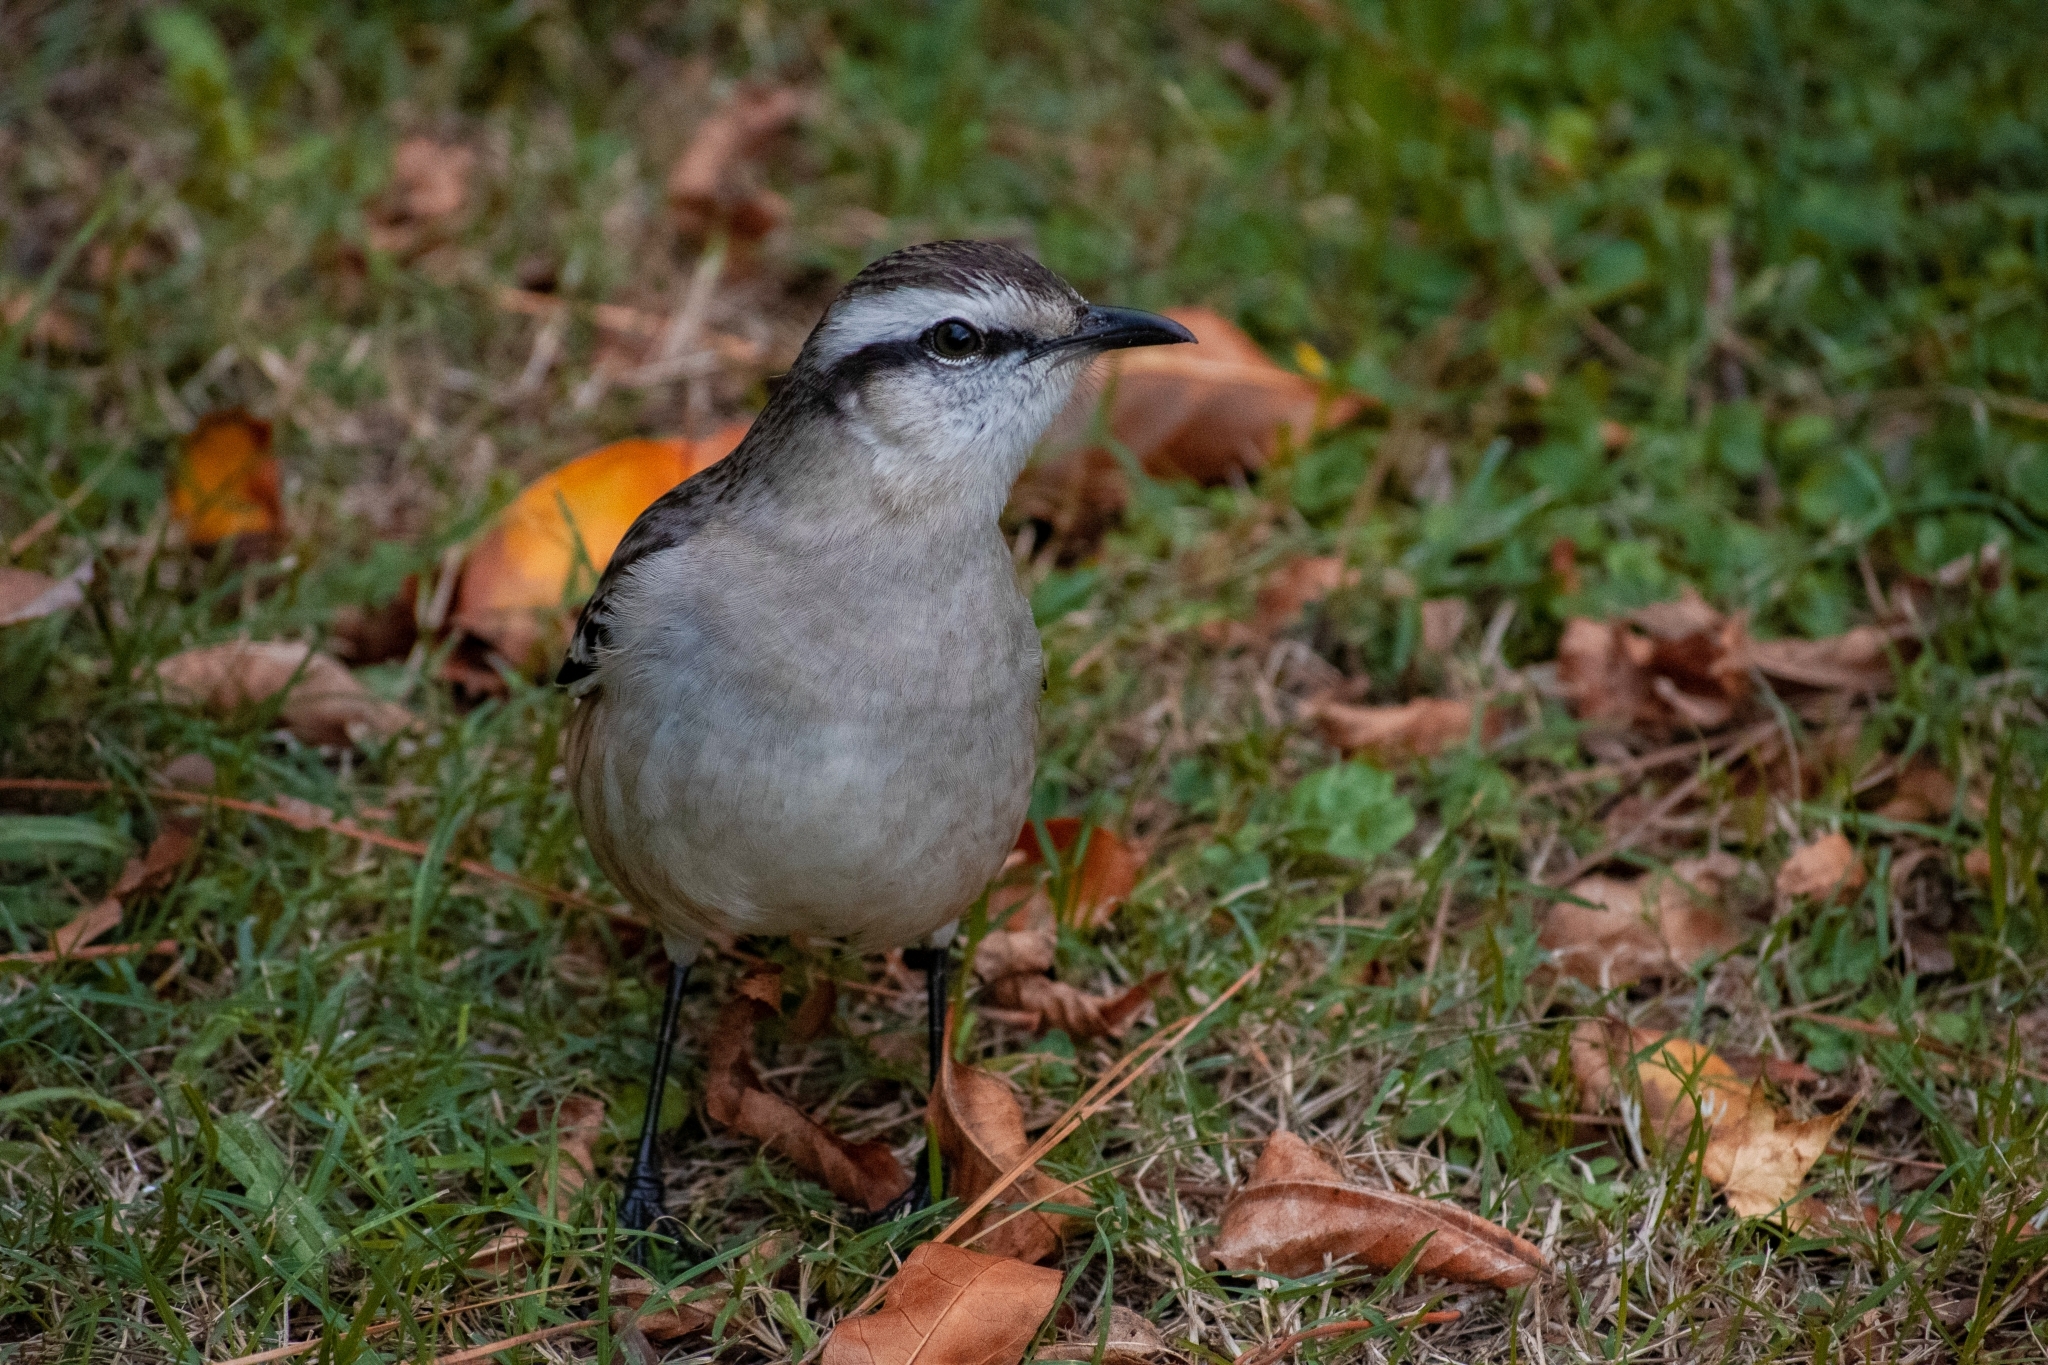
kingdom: Animalia
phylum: Chordata
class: Aves
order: Passeriformes
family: Mimidae
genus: Mimus
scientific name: Mimus saturninus
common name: Chalk-browed mockingbird
